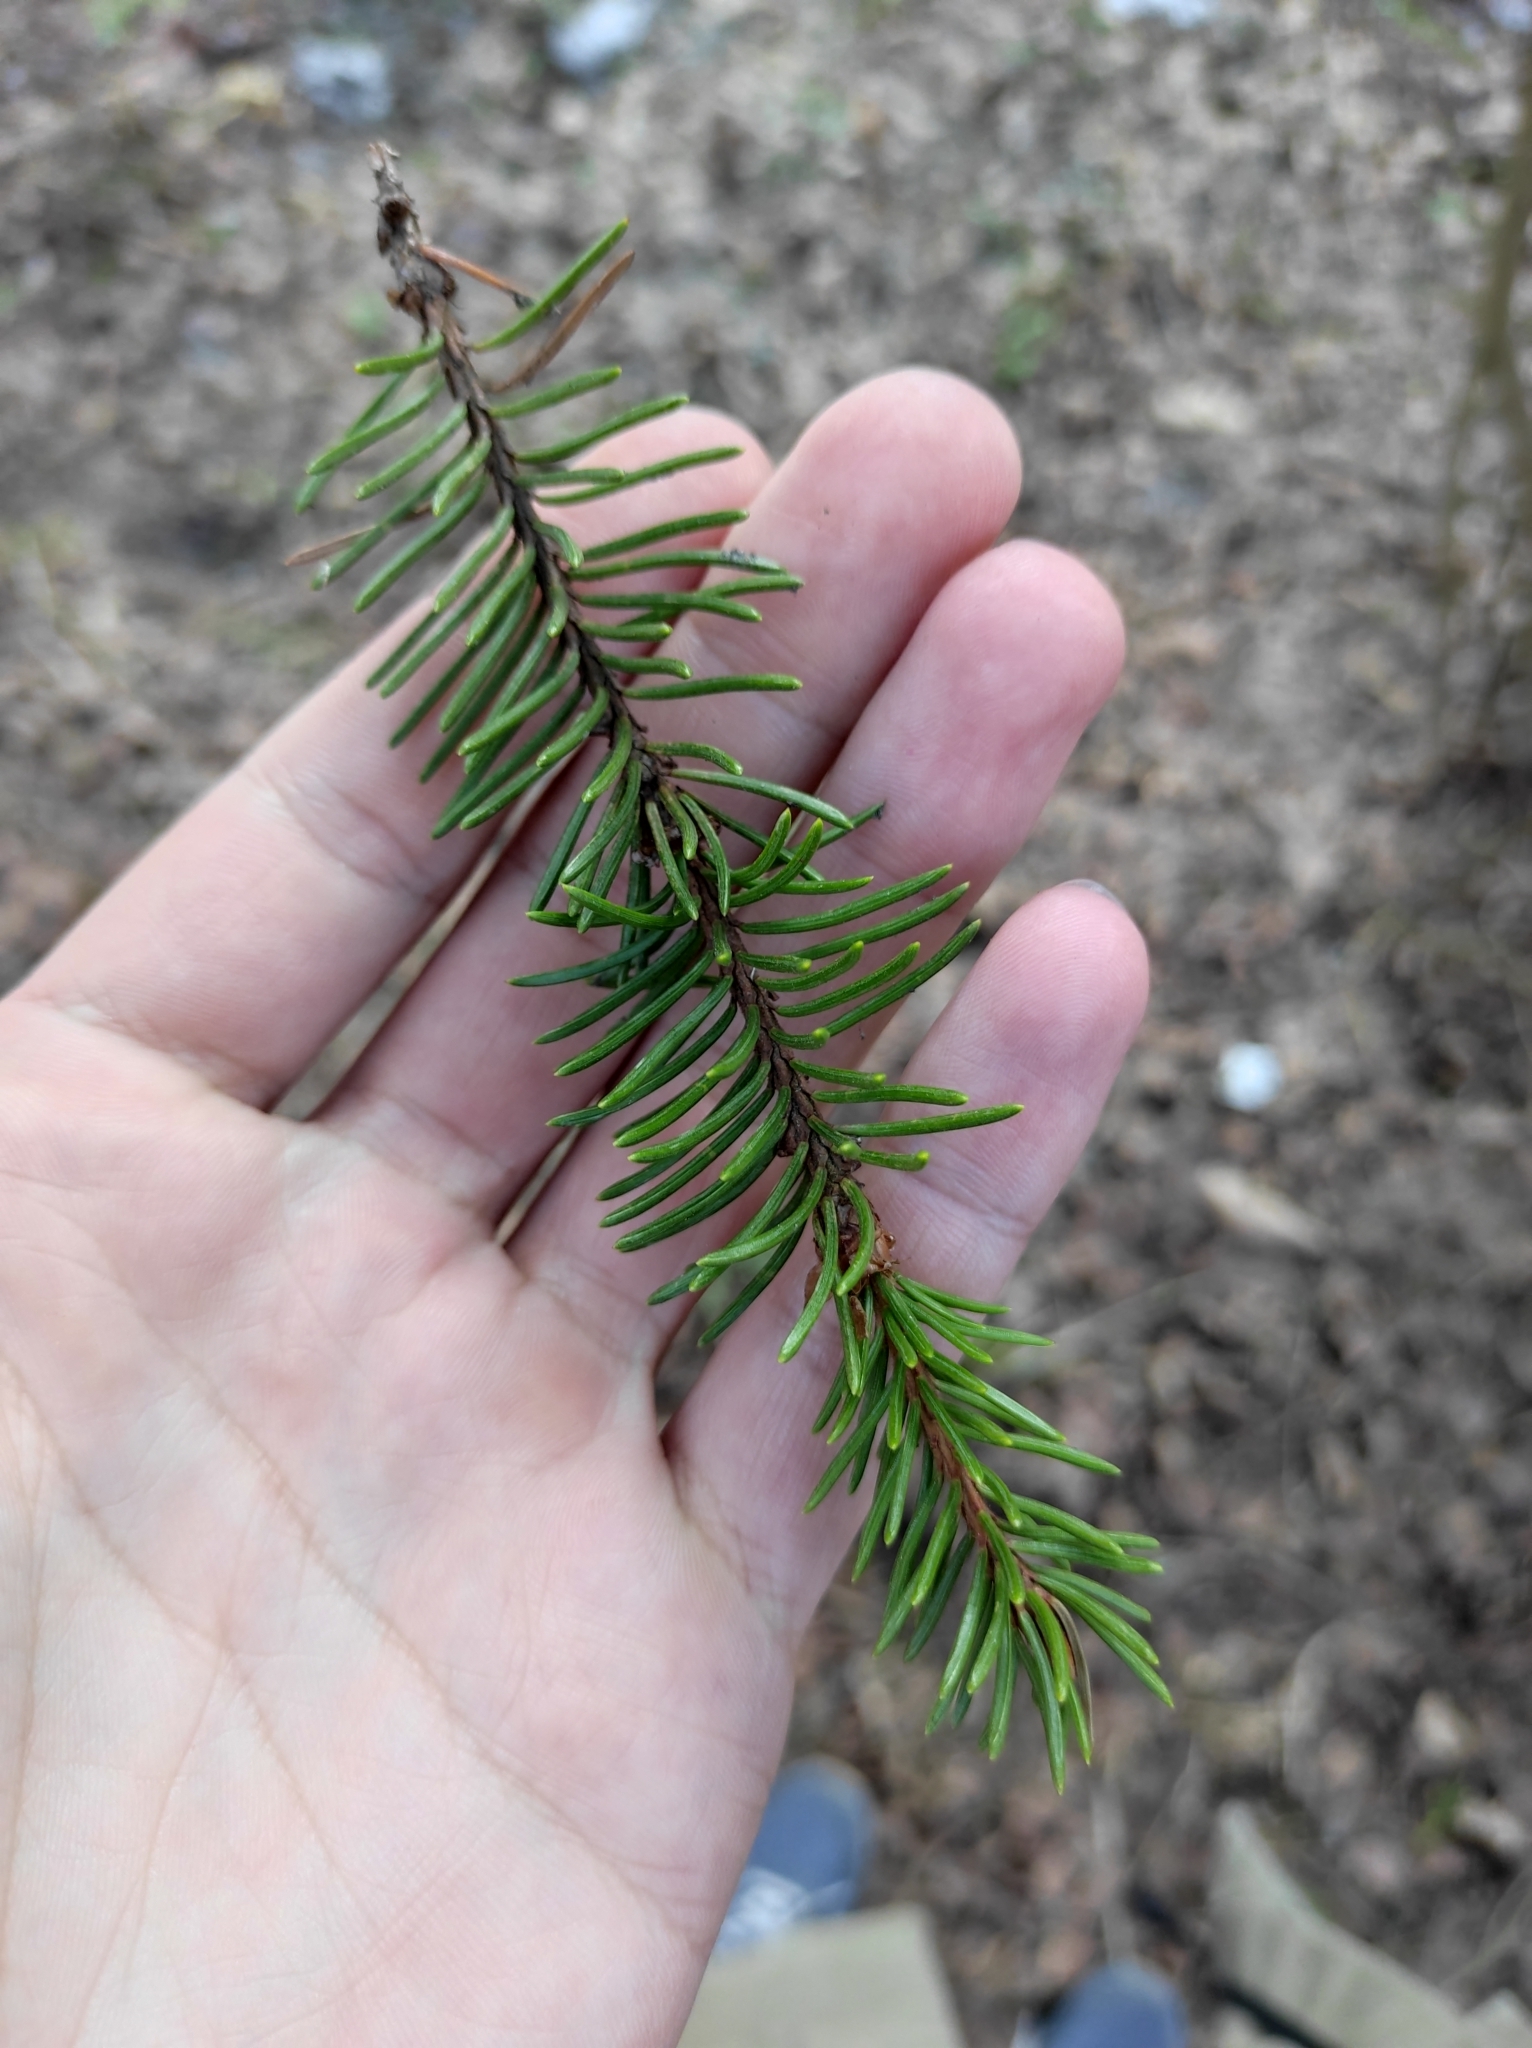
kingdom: Plantae
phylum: Tracheophyta
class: Pinopsida
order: Pinales
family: Pinaceae
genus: Picea
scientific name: Picea abies
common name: Norway spruce
